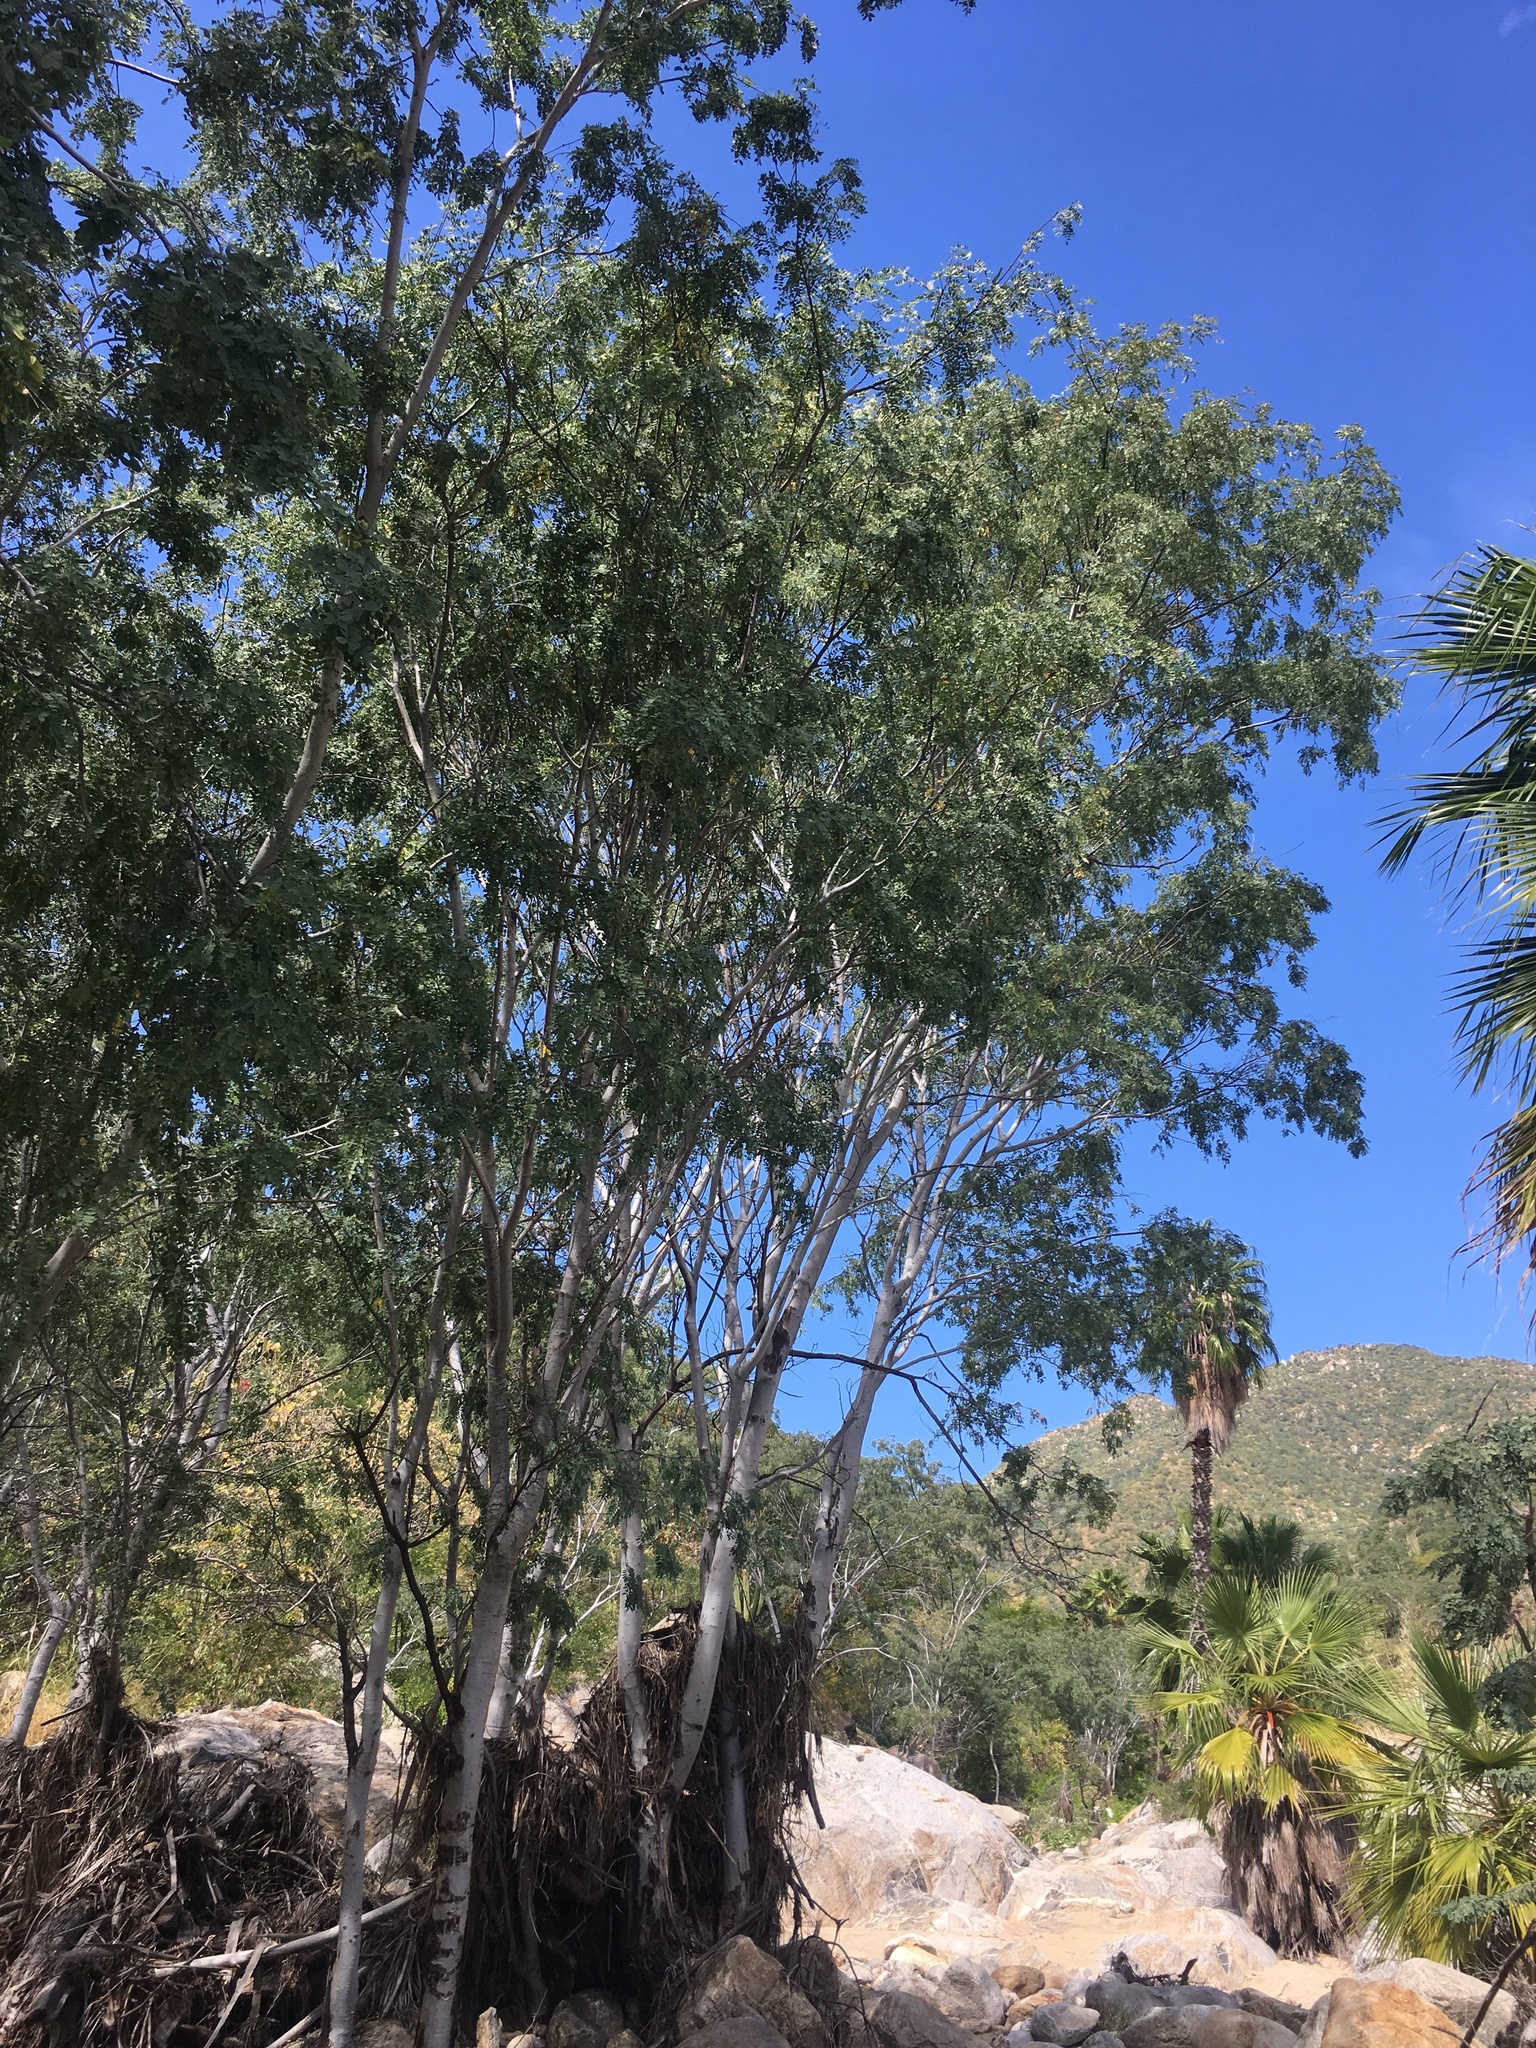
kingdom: Plantae
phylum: Tracheophyta
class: Magnoliopsida
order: Fabales
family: Fabaceae
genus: Lysiloma
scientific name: Lysiloma candidum
